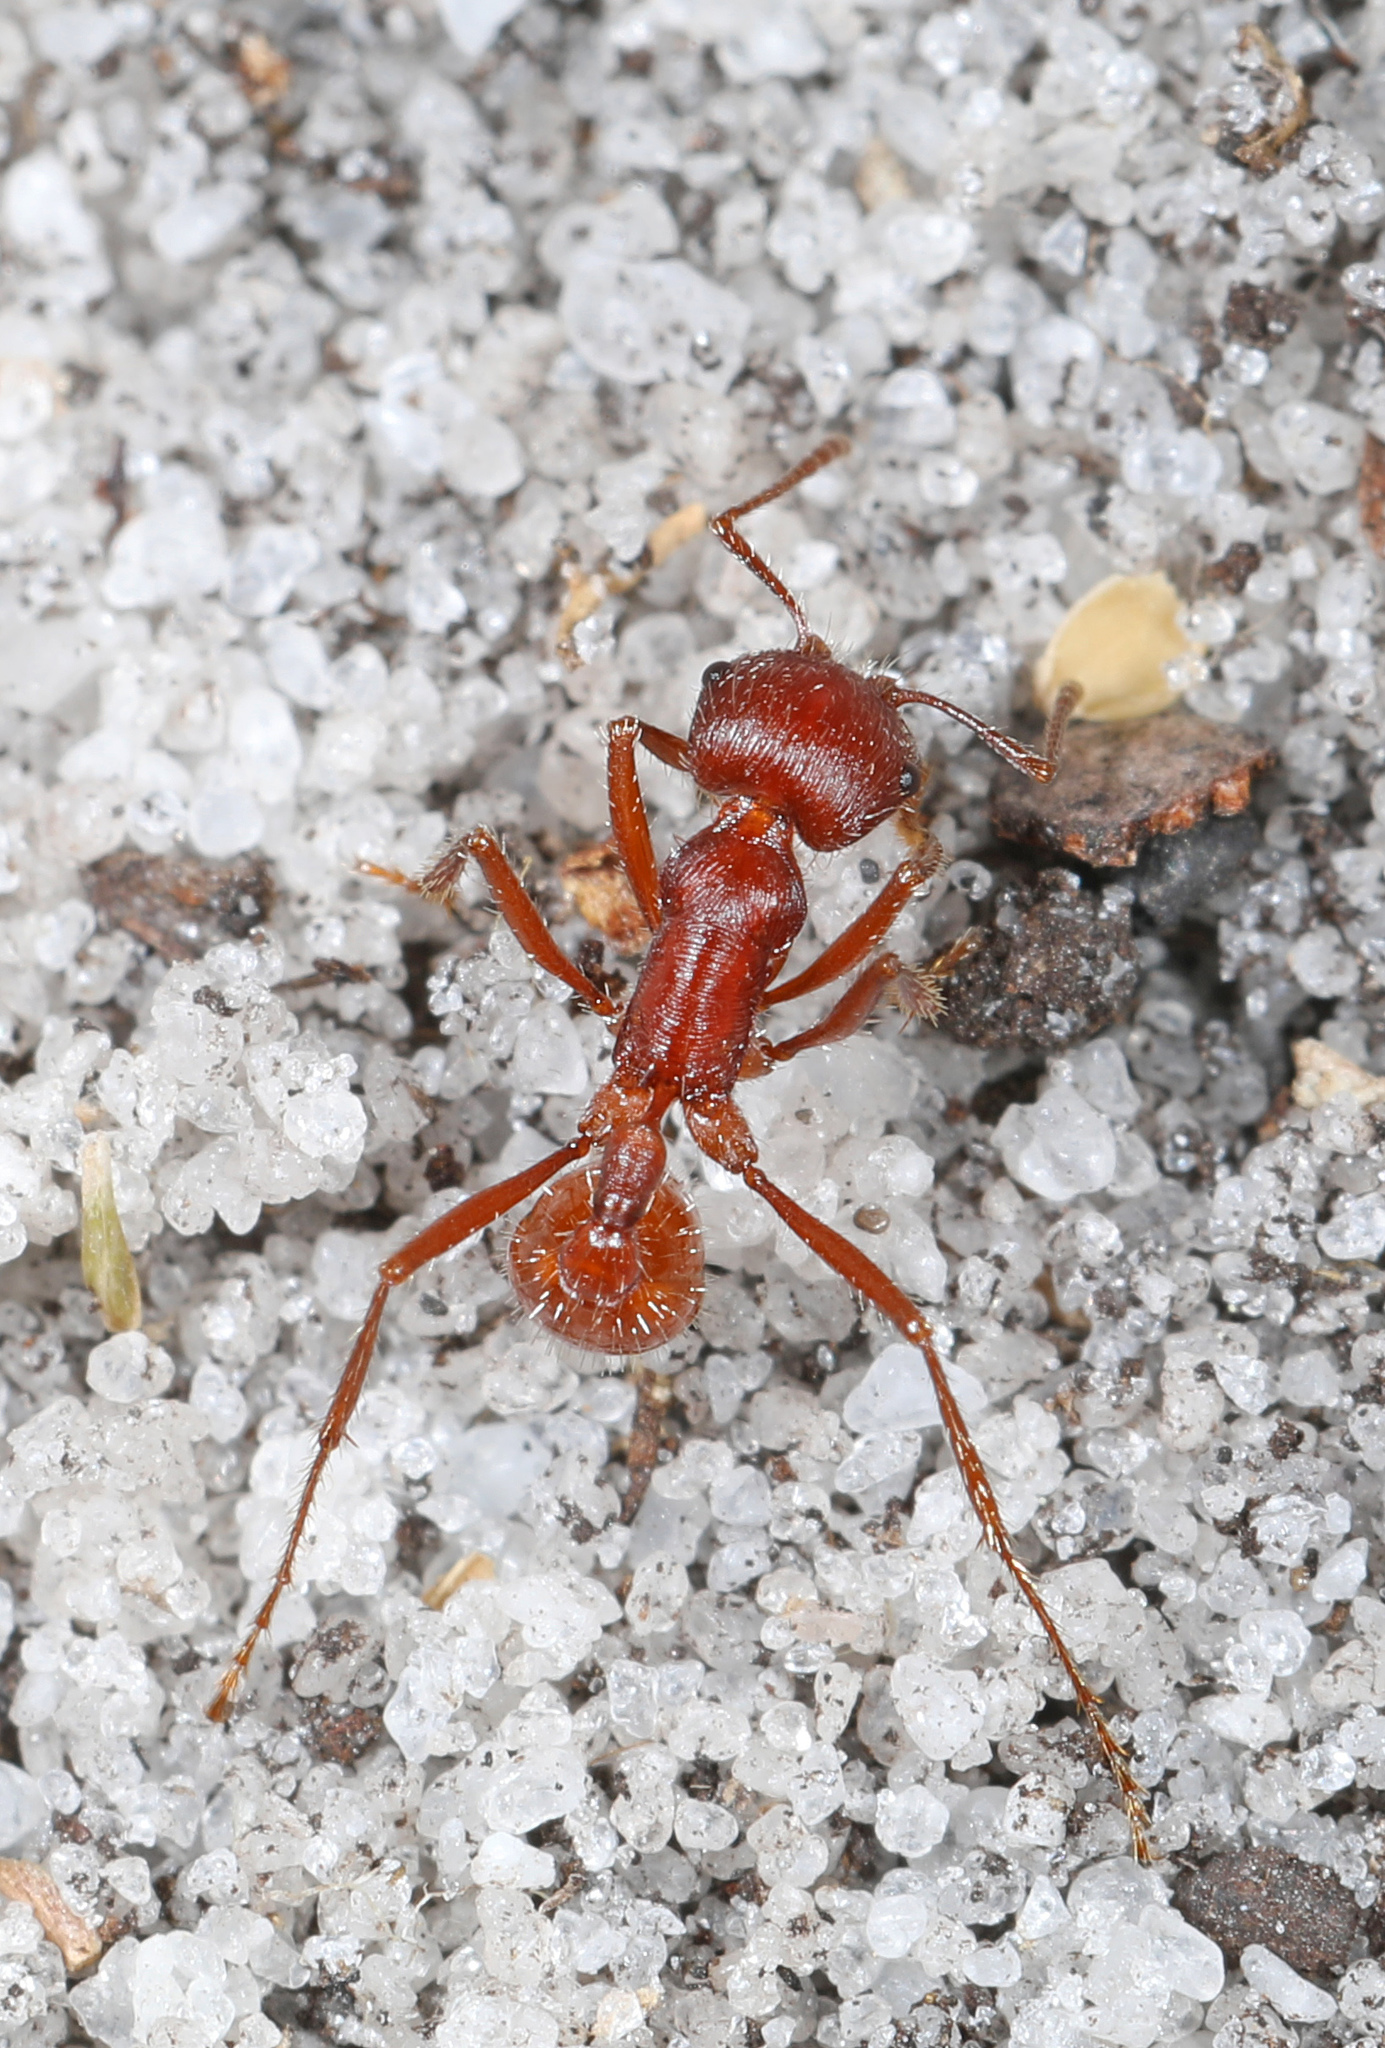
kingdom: Animalia
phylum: Arthropoda
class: Insecta
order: Hymenoptera
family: Formicidae
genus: Pogonomyrmex
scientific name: Pogonomyrmex badius
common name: Florida harvester ant
